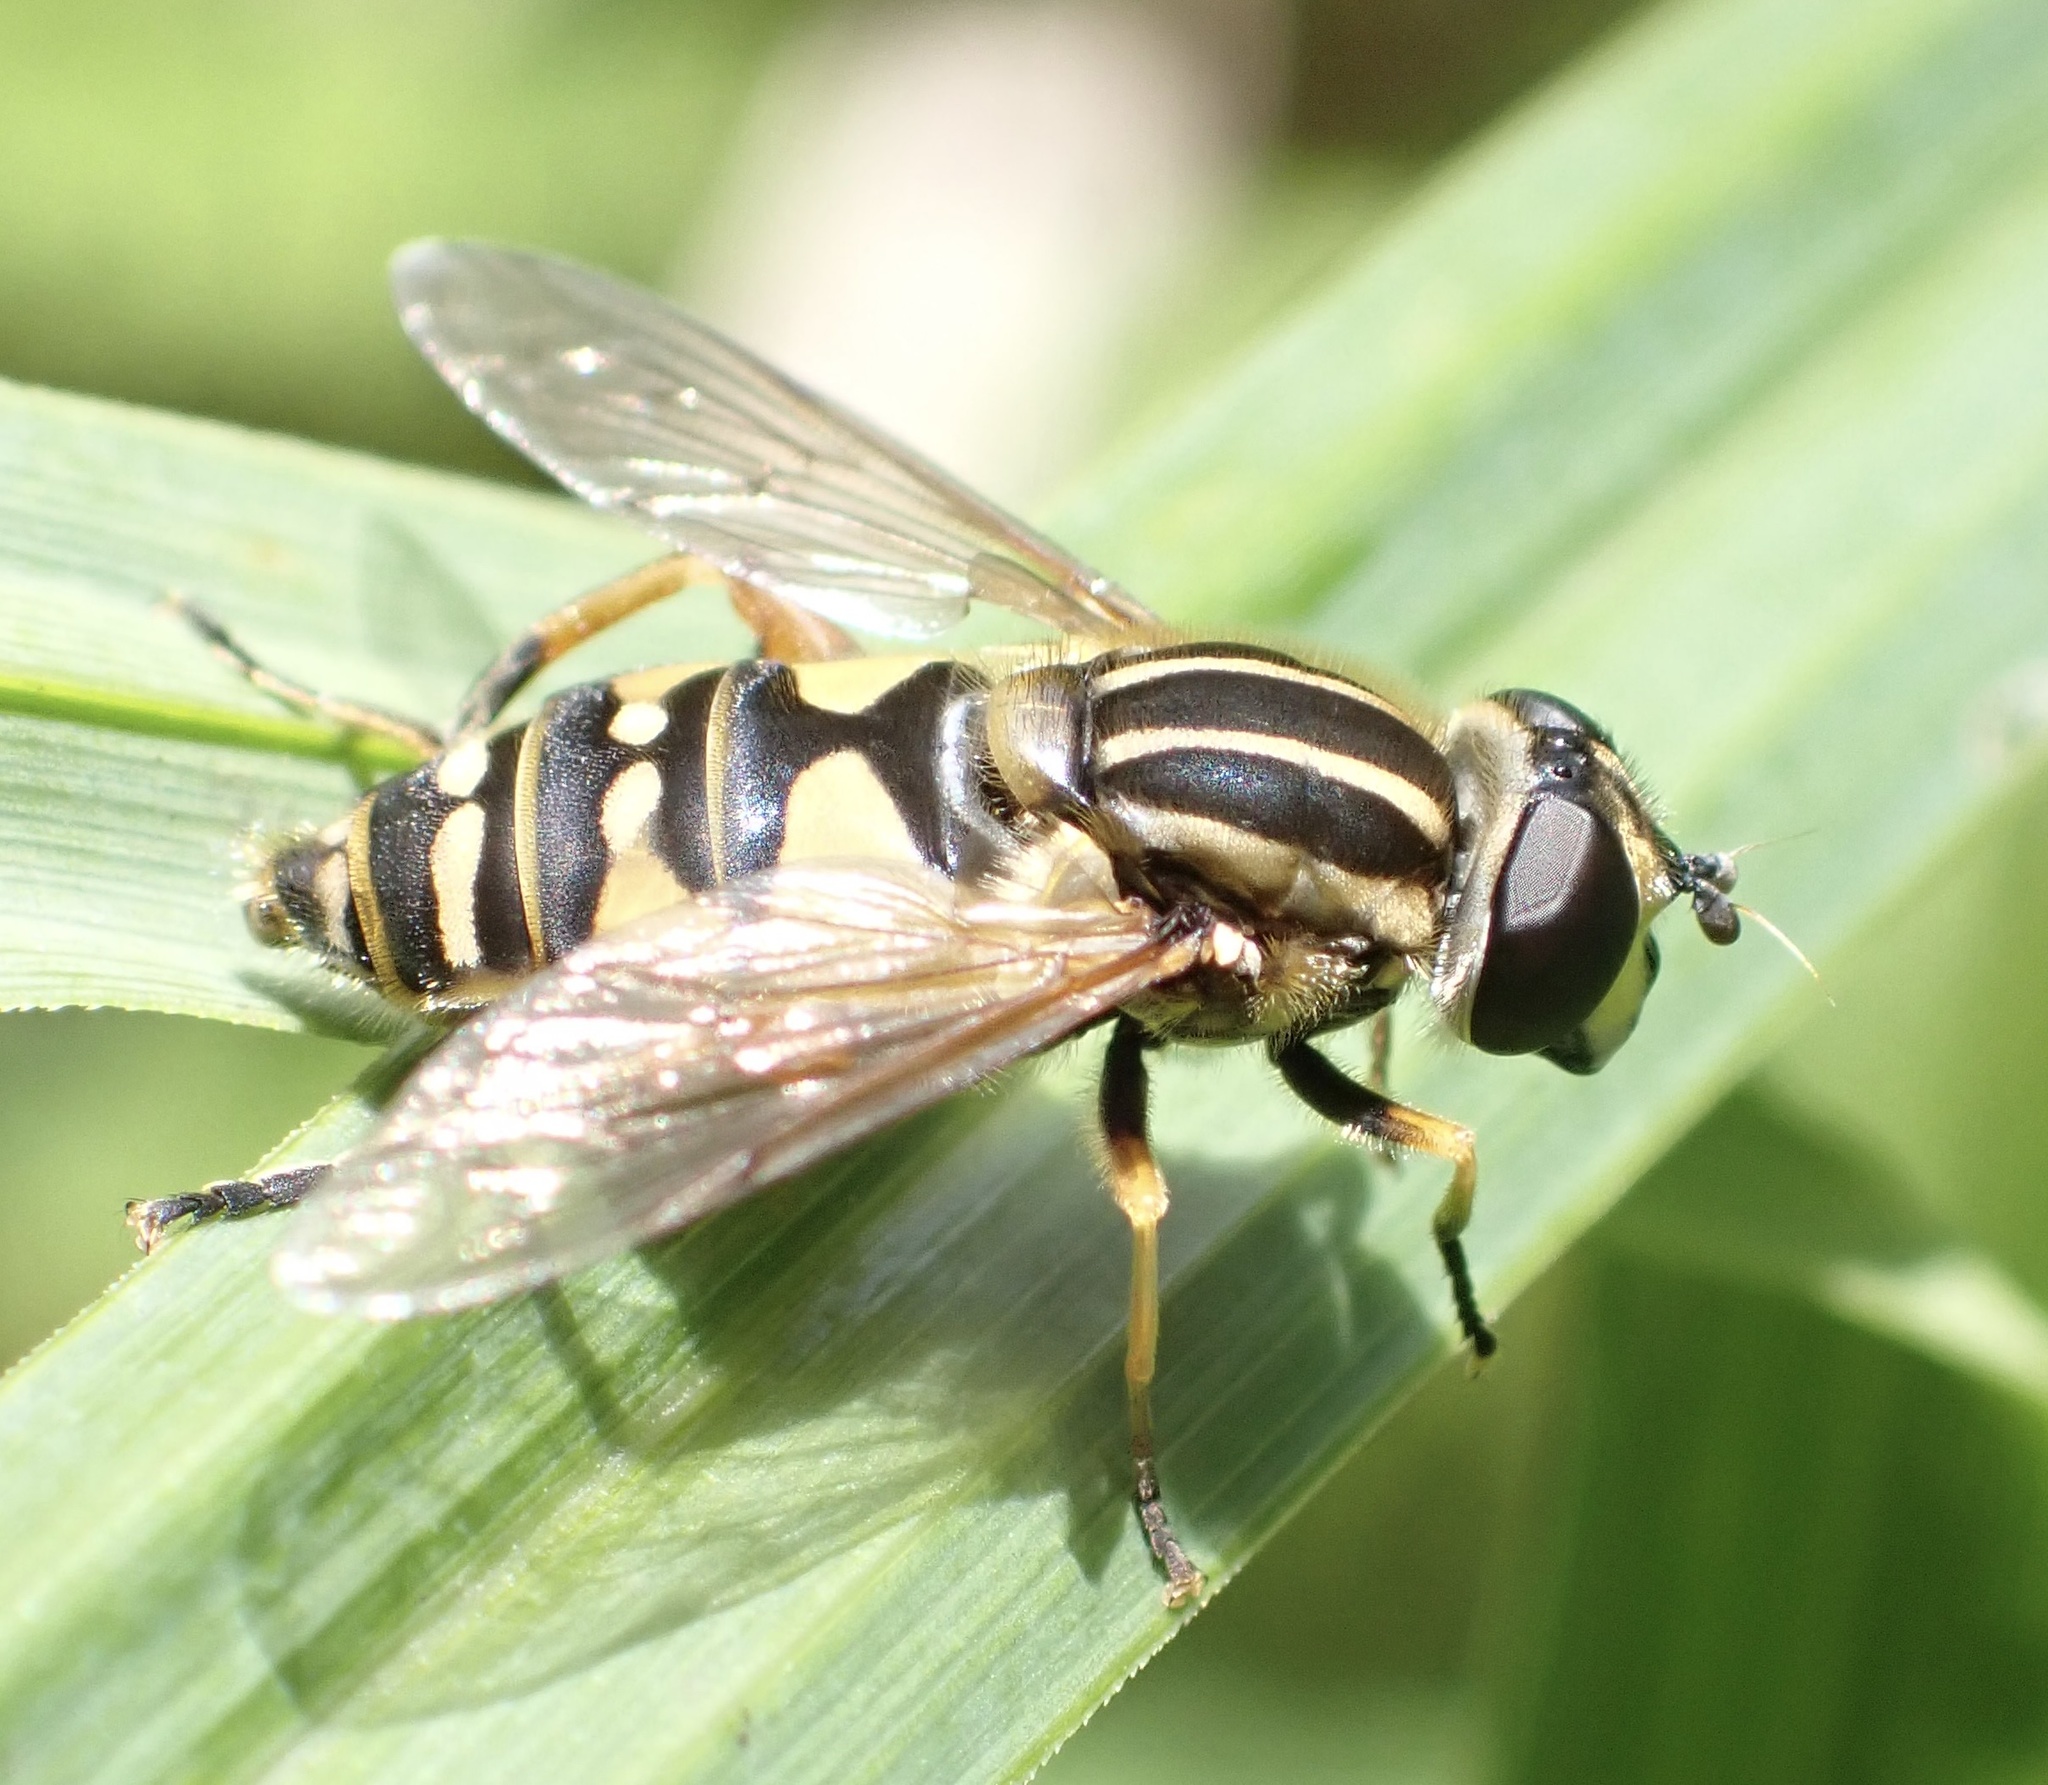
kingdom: Animalia
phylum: Arthropoda
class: Insecta
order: Diptera
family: Syrphidae
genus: Helophilus
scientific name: Helophilus pendulus
